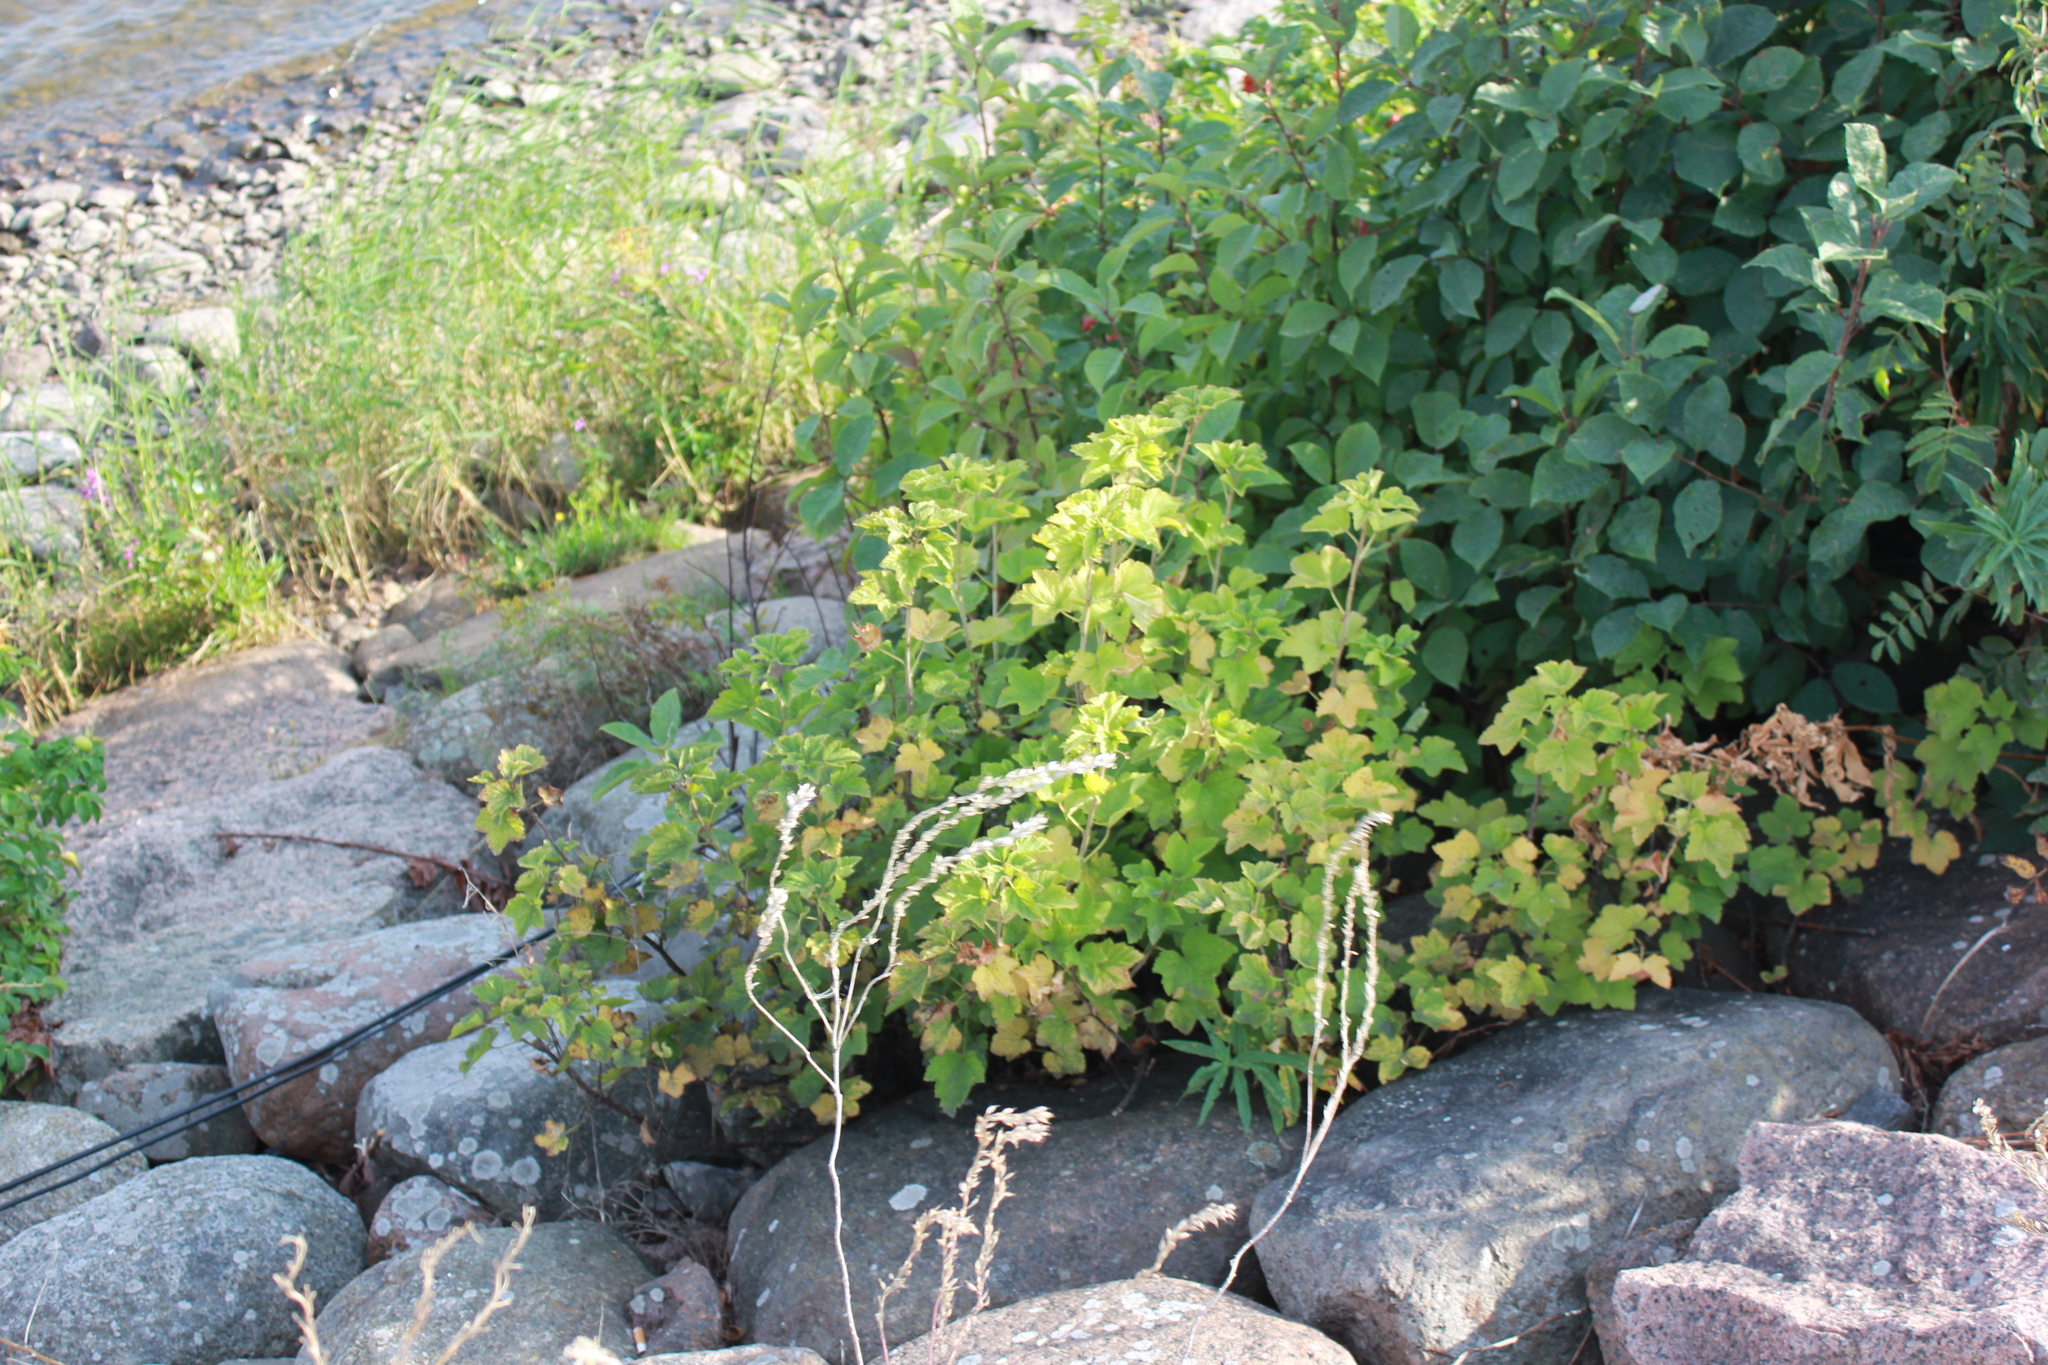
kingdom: Plantae
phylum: Tracheophyta
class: Magnoliopsida
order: Saxifragales
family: Grossulariaceae
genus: Ribes
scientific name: Ribes nigrum
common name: Black currant
